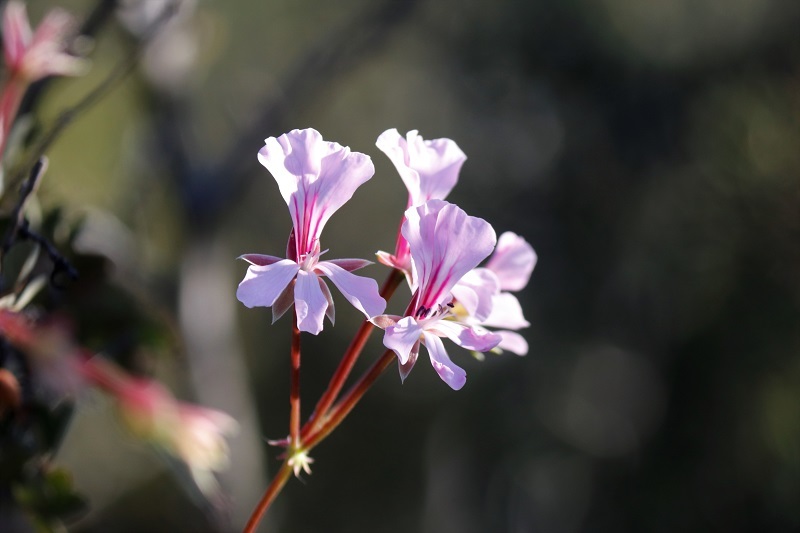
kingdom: Plantae
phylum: Tracheophyta
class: Magnoliopsida
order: Geraniales
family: Geraniaceae
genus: Pelargonium
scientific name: Pelargonium peltatum
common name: Ivyleaf geranium
